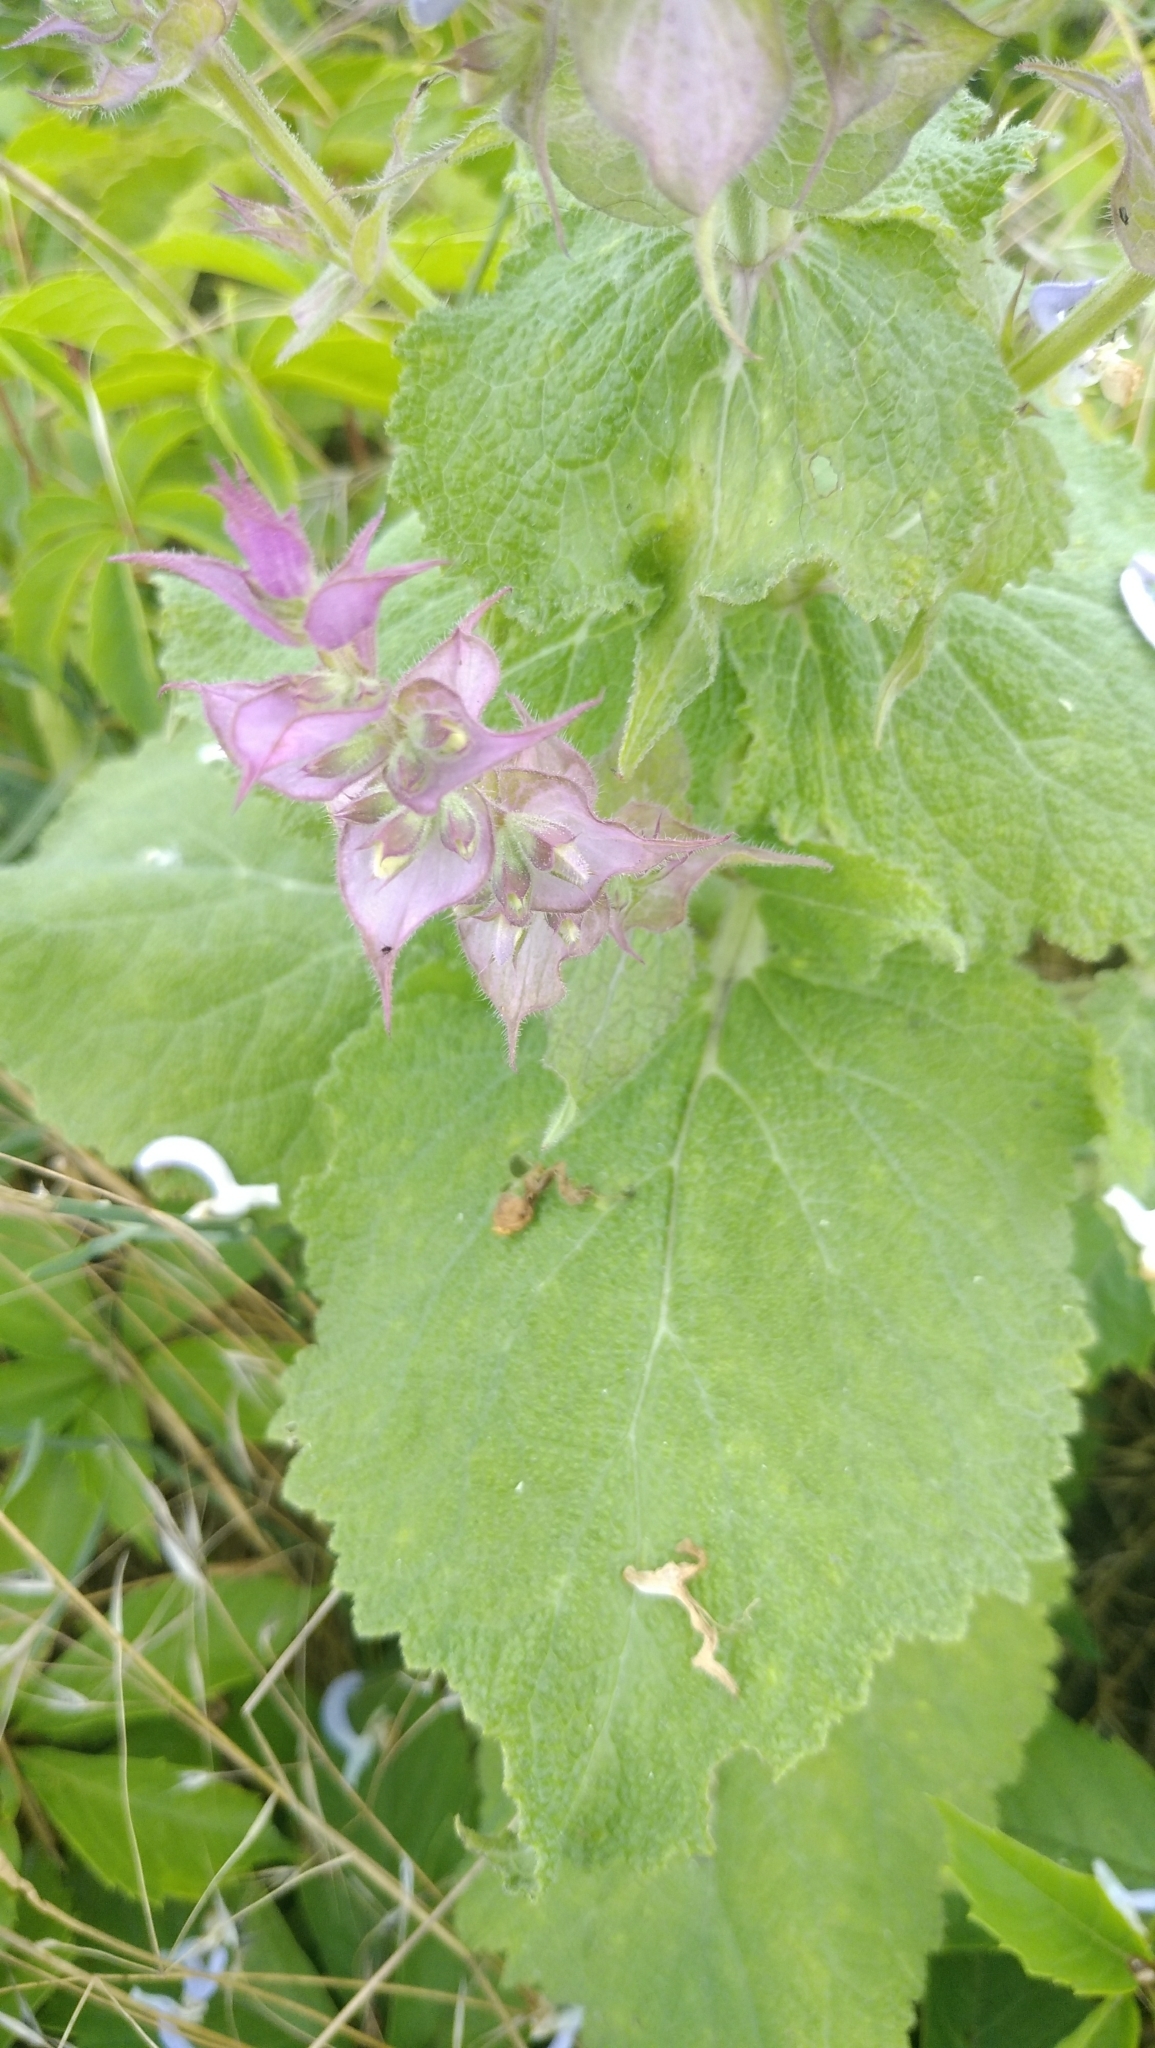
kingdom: Plantae
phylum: Tracheophyta
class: Magnoliopsida
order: Lamiales
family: Lamiaceae
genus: Salvia
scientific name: Salvia sclarea
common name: Clary
